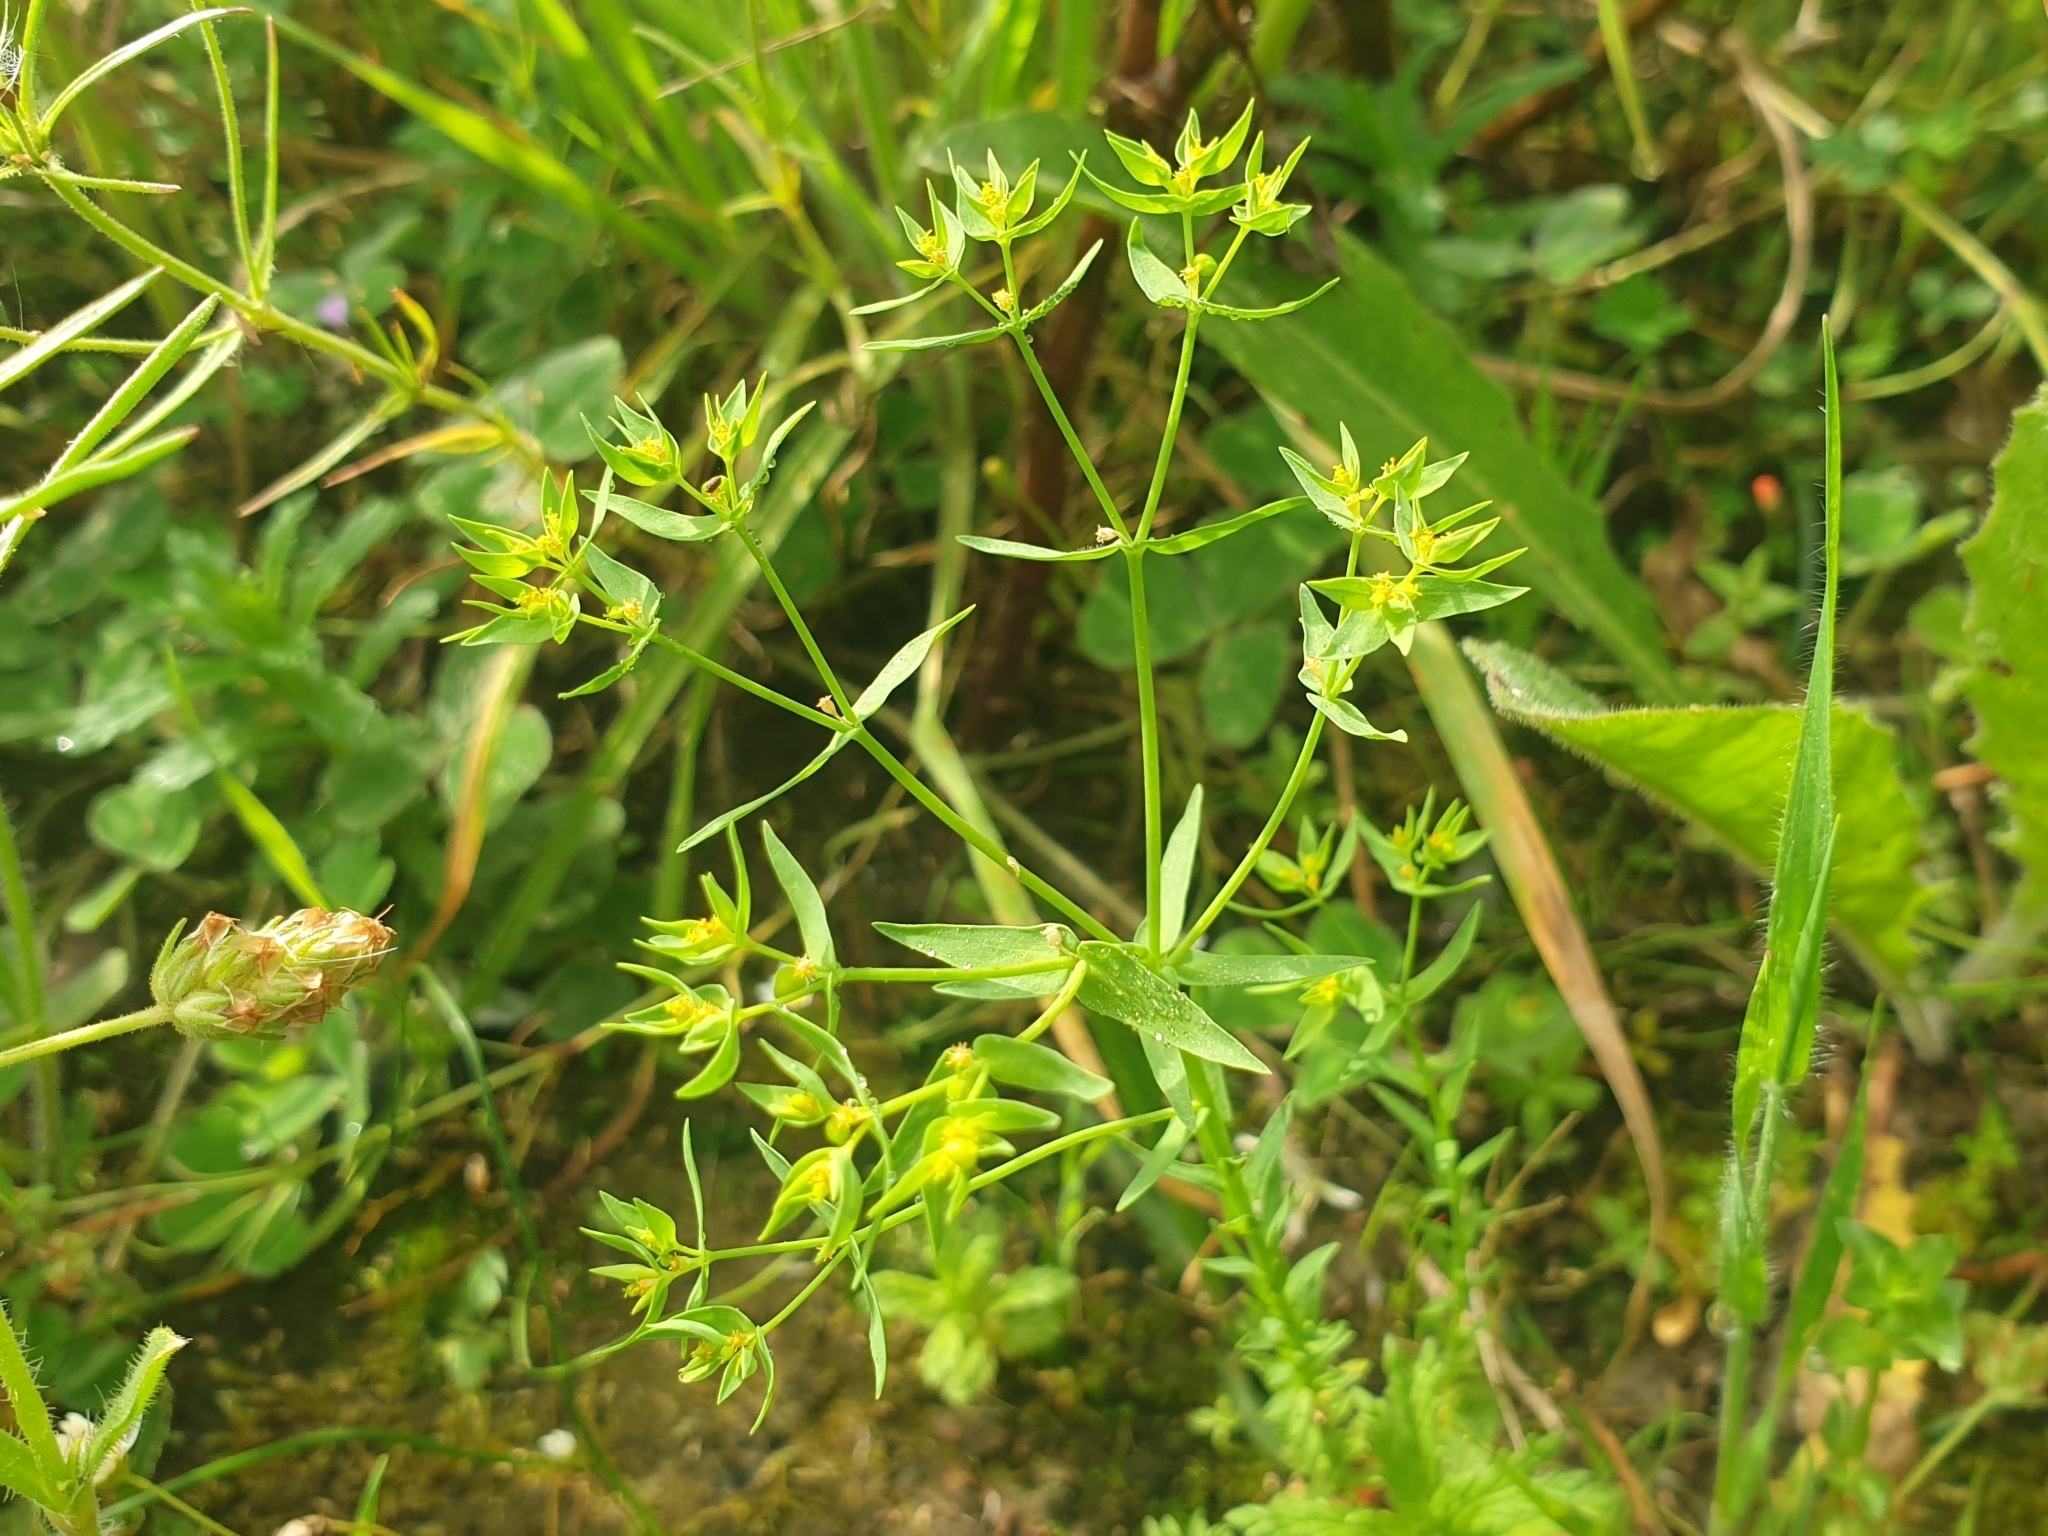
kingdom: Plantae
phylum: Tracheophyta
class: Magnoliopsida
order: Malpighiales
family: Euphorbiaceae
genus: Euphorbia
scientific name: Euphorbia exigua
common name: Dwarf spurge
